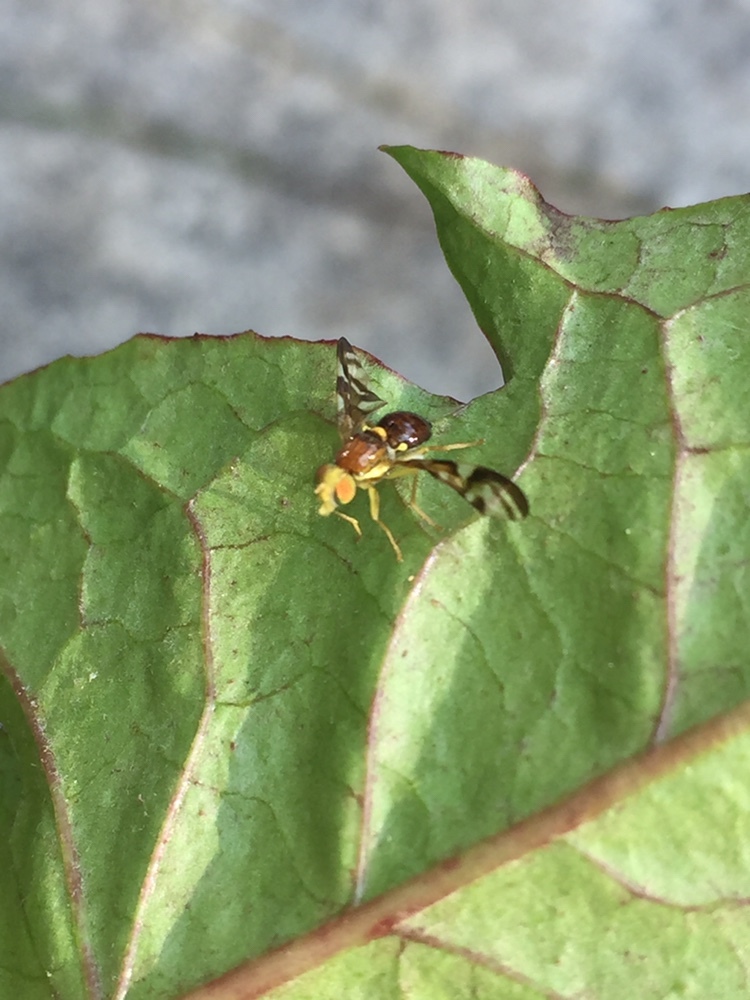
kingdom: Animalia
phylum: Arthropoda
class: Insecta
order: Diptera
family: Tephritidae
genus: Euleia
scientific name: Euleia heraclei
